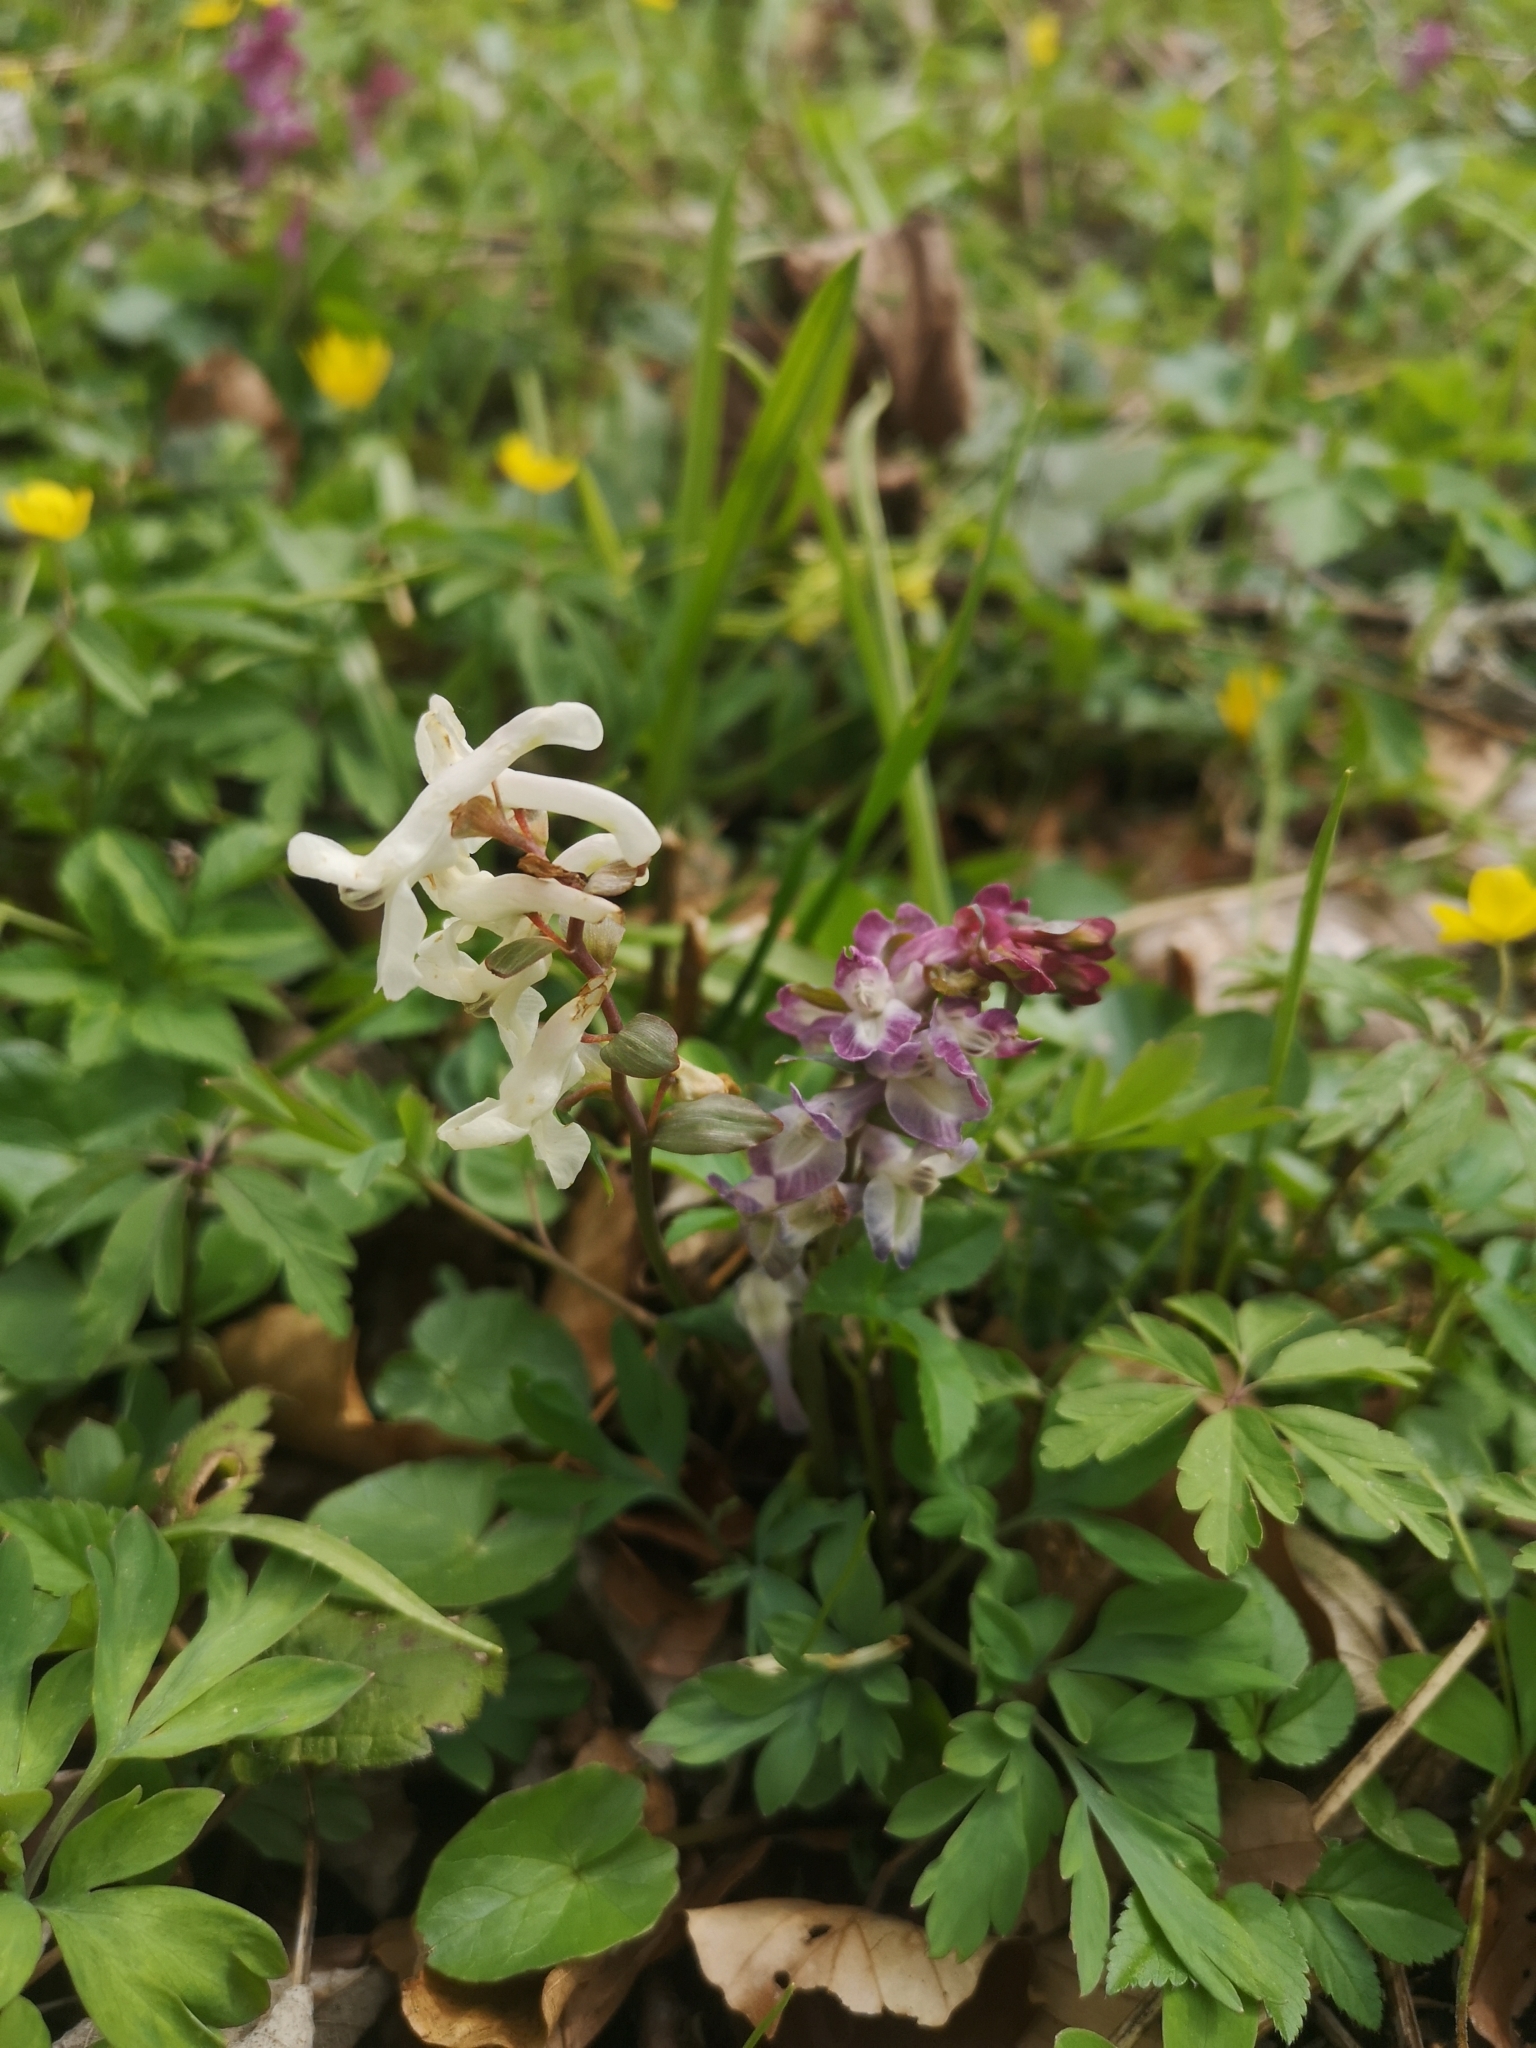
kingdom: Plantae
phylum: Tracheophyta
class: Magnoliopsida
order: Ranunculales
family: Papaveraceae
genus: Corydalis
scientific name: Corydalis cava
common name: Hollowroot
